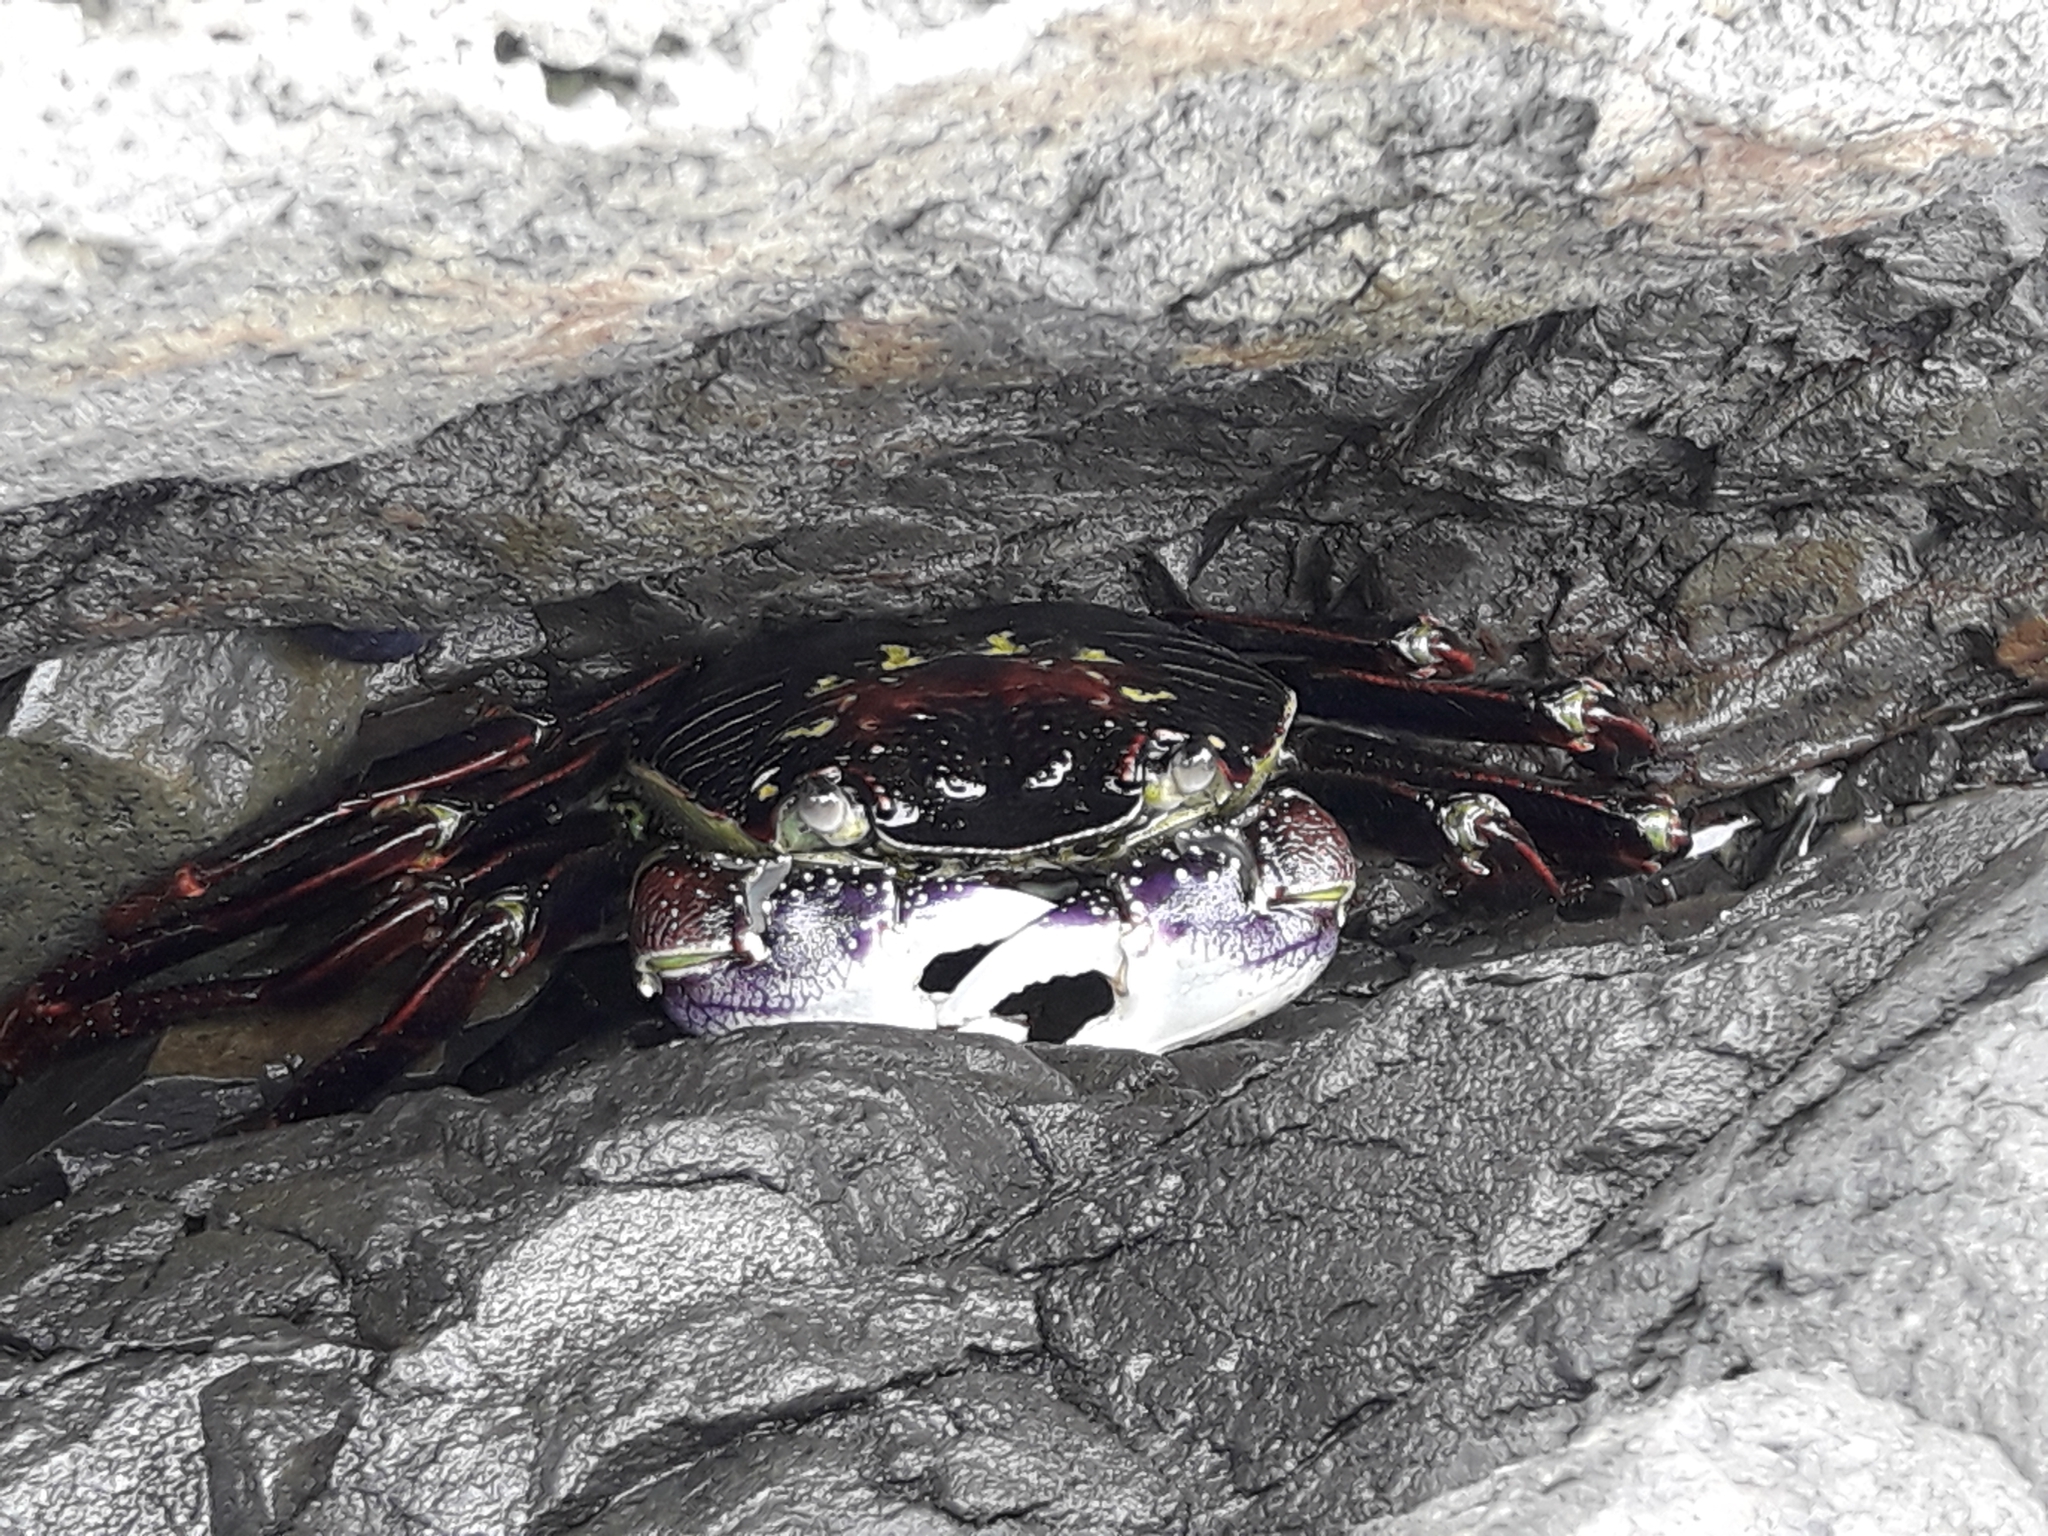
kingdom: Animalia
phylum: Arthropoda
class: Malacostraca
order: Decapoda
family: Grapsidae
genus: Leptograpsus
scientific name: Leptograpsus variegatus
